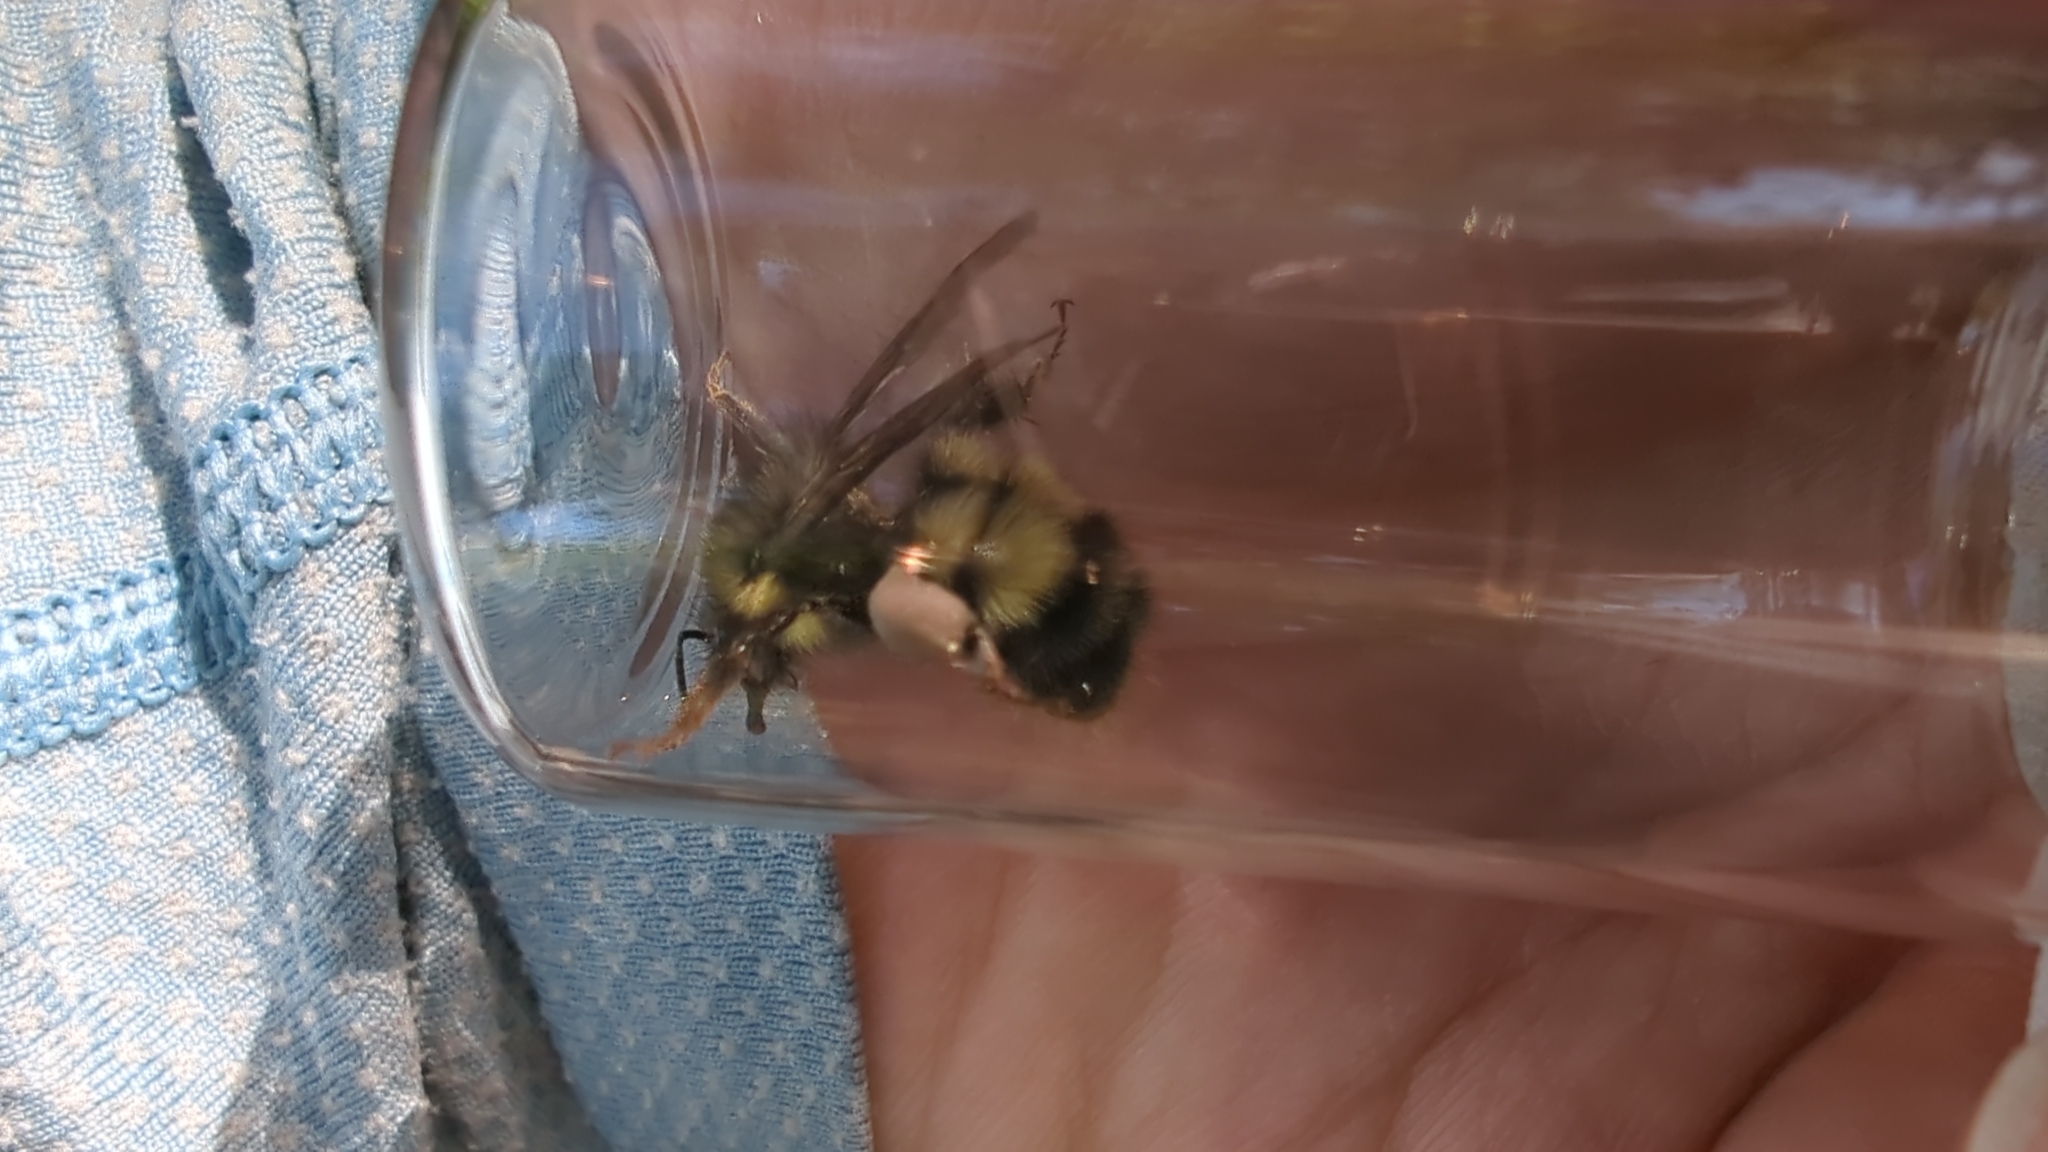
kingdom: Animalia
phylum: Arthropoda
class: Insecta
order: Hymenoptera
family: Apidae
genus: Bombus
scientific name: Bombus sitkensis
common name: Sitka bumble bee
